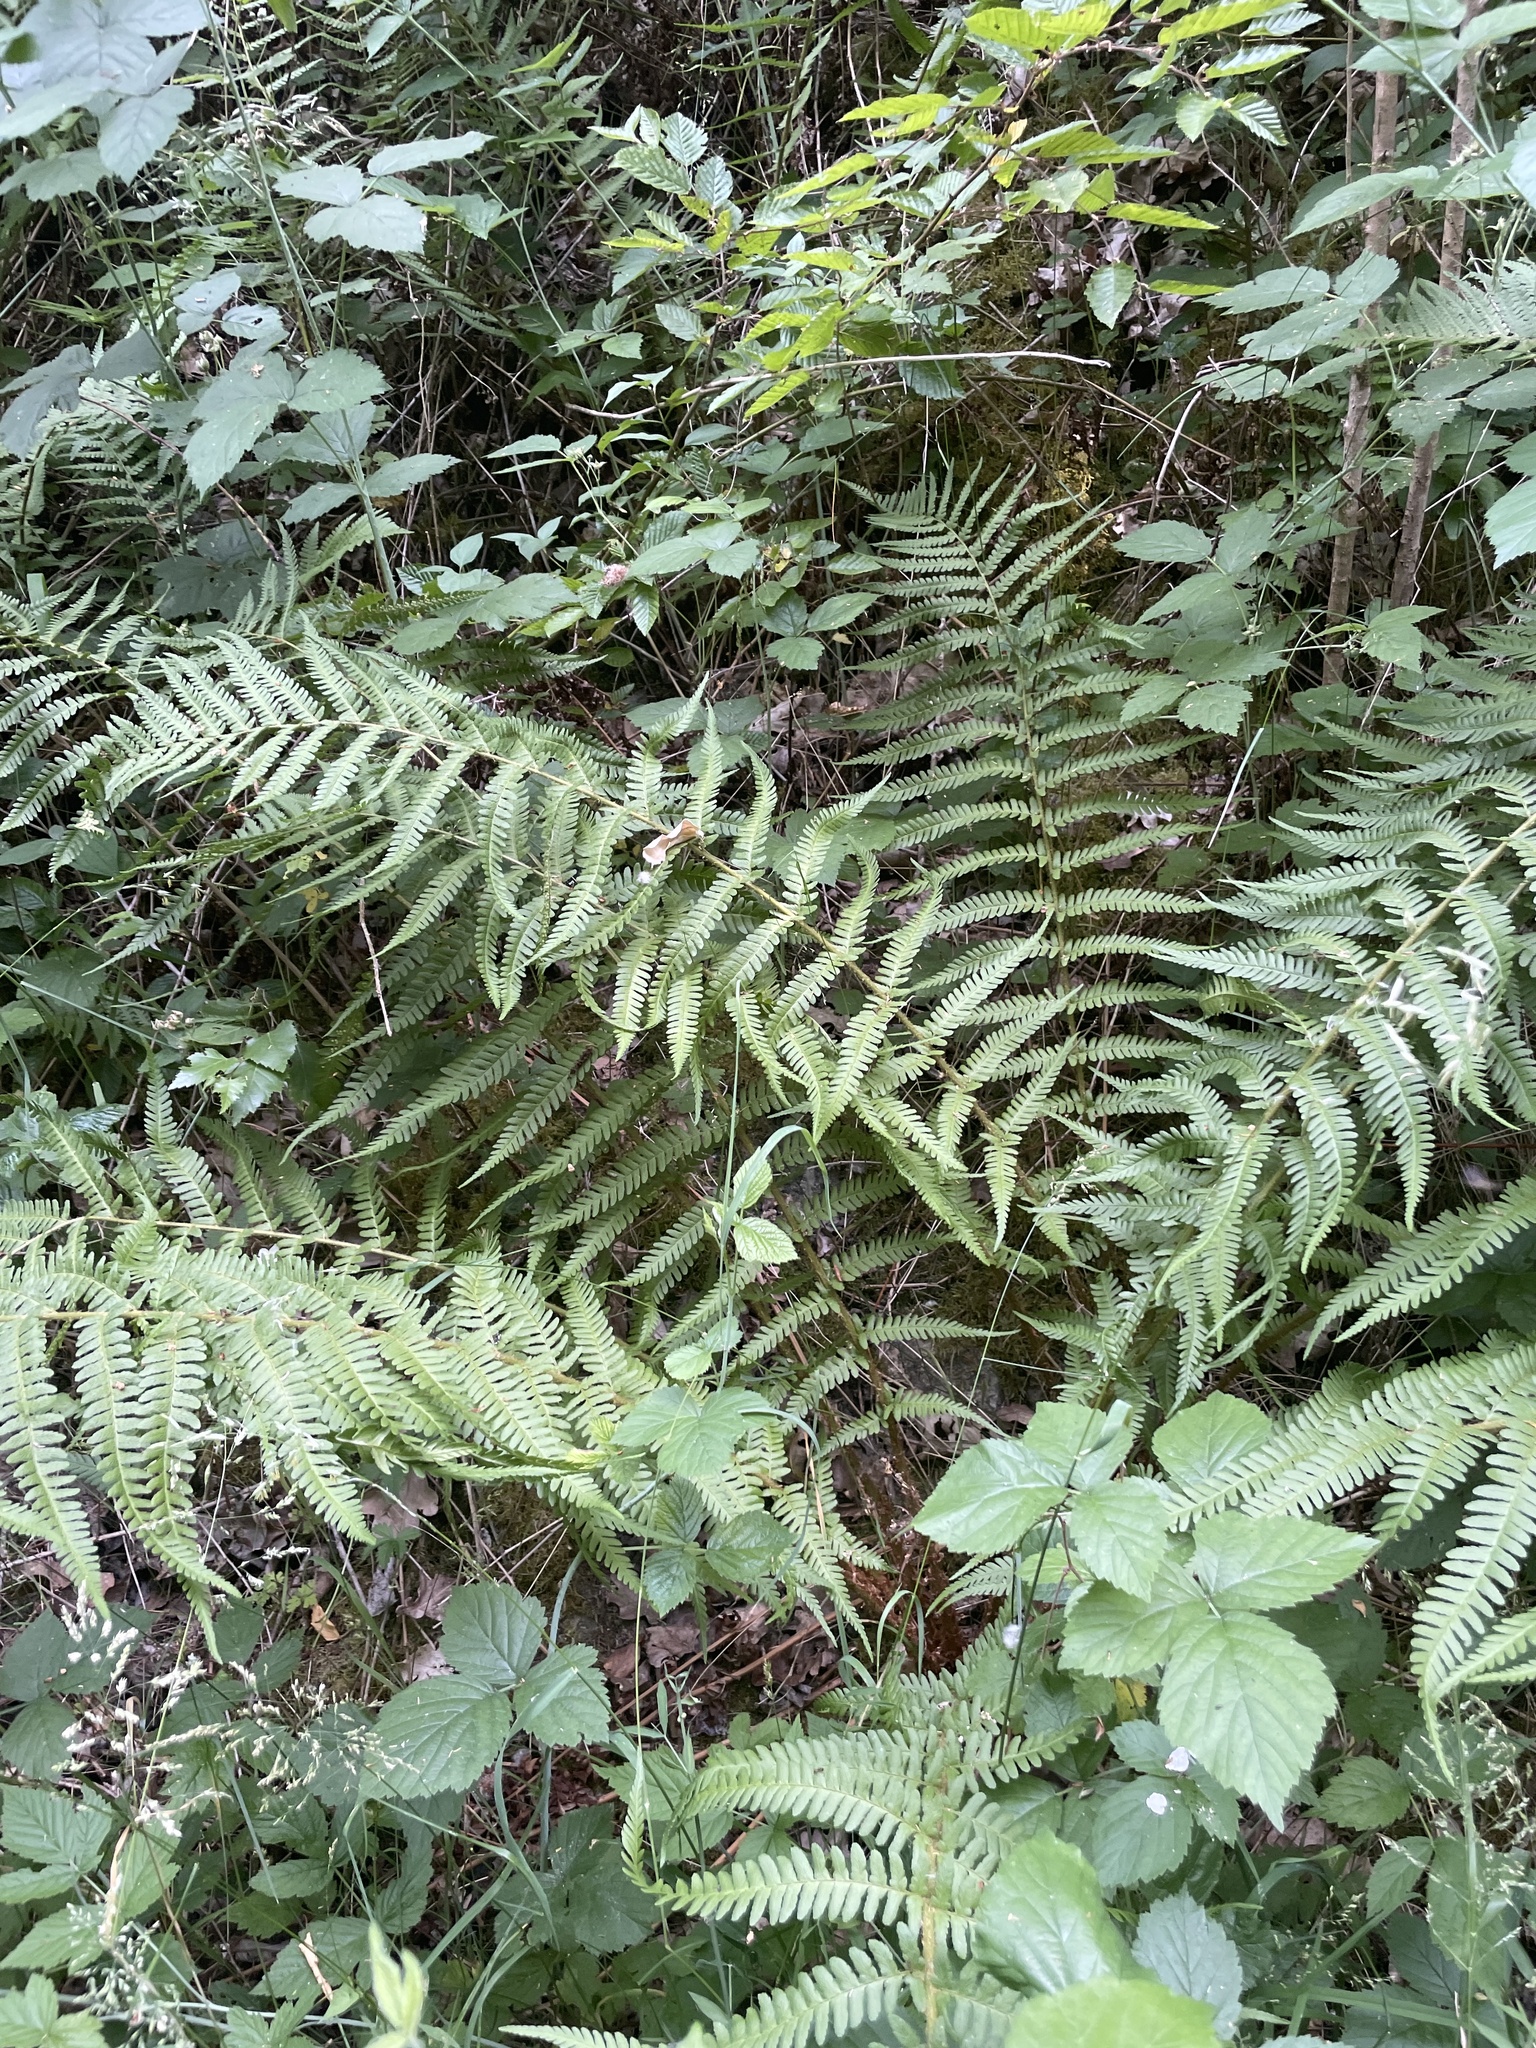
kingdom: Plantae
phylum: Tracheophyta
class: Polypodiopsida
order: Polypodiales
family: Dryopteridaceae
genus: Dryopteris
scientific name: Dryopteris filix-mas
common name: Male fern
